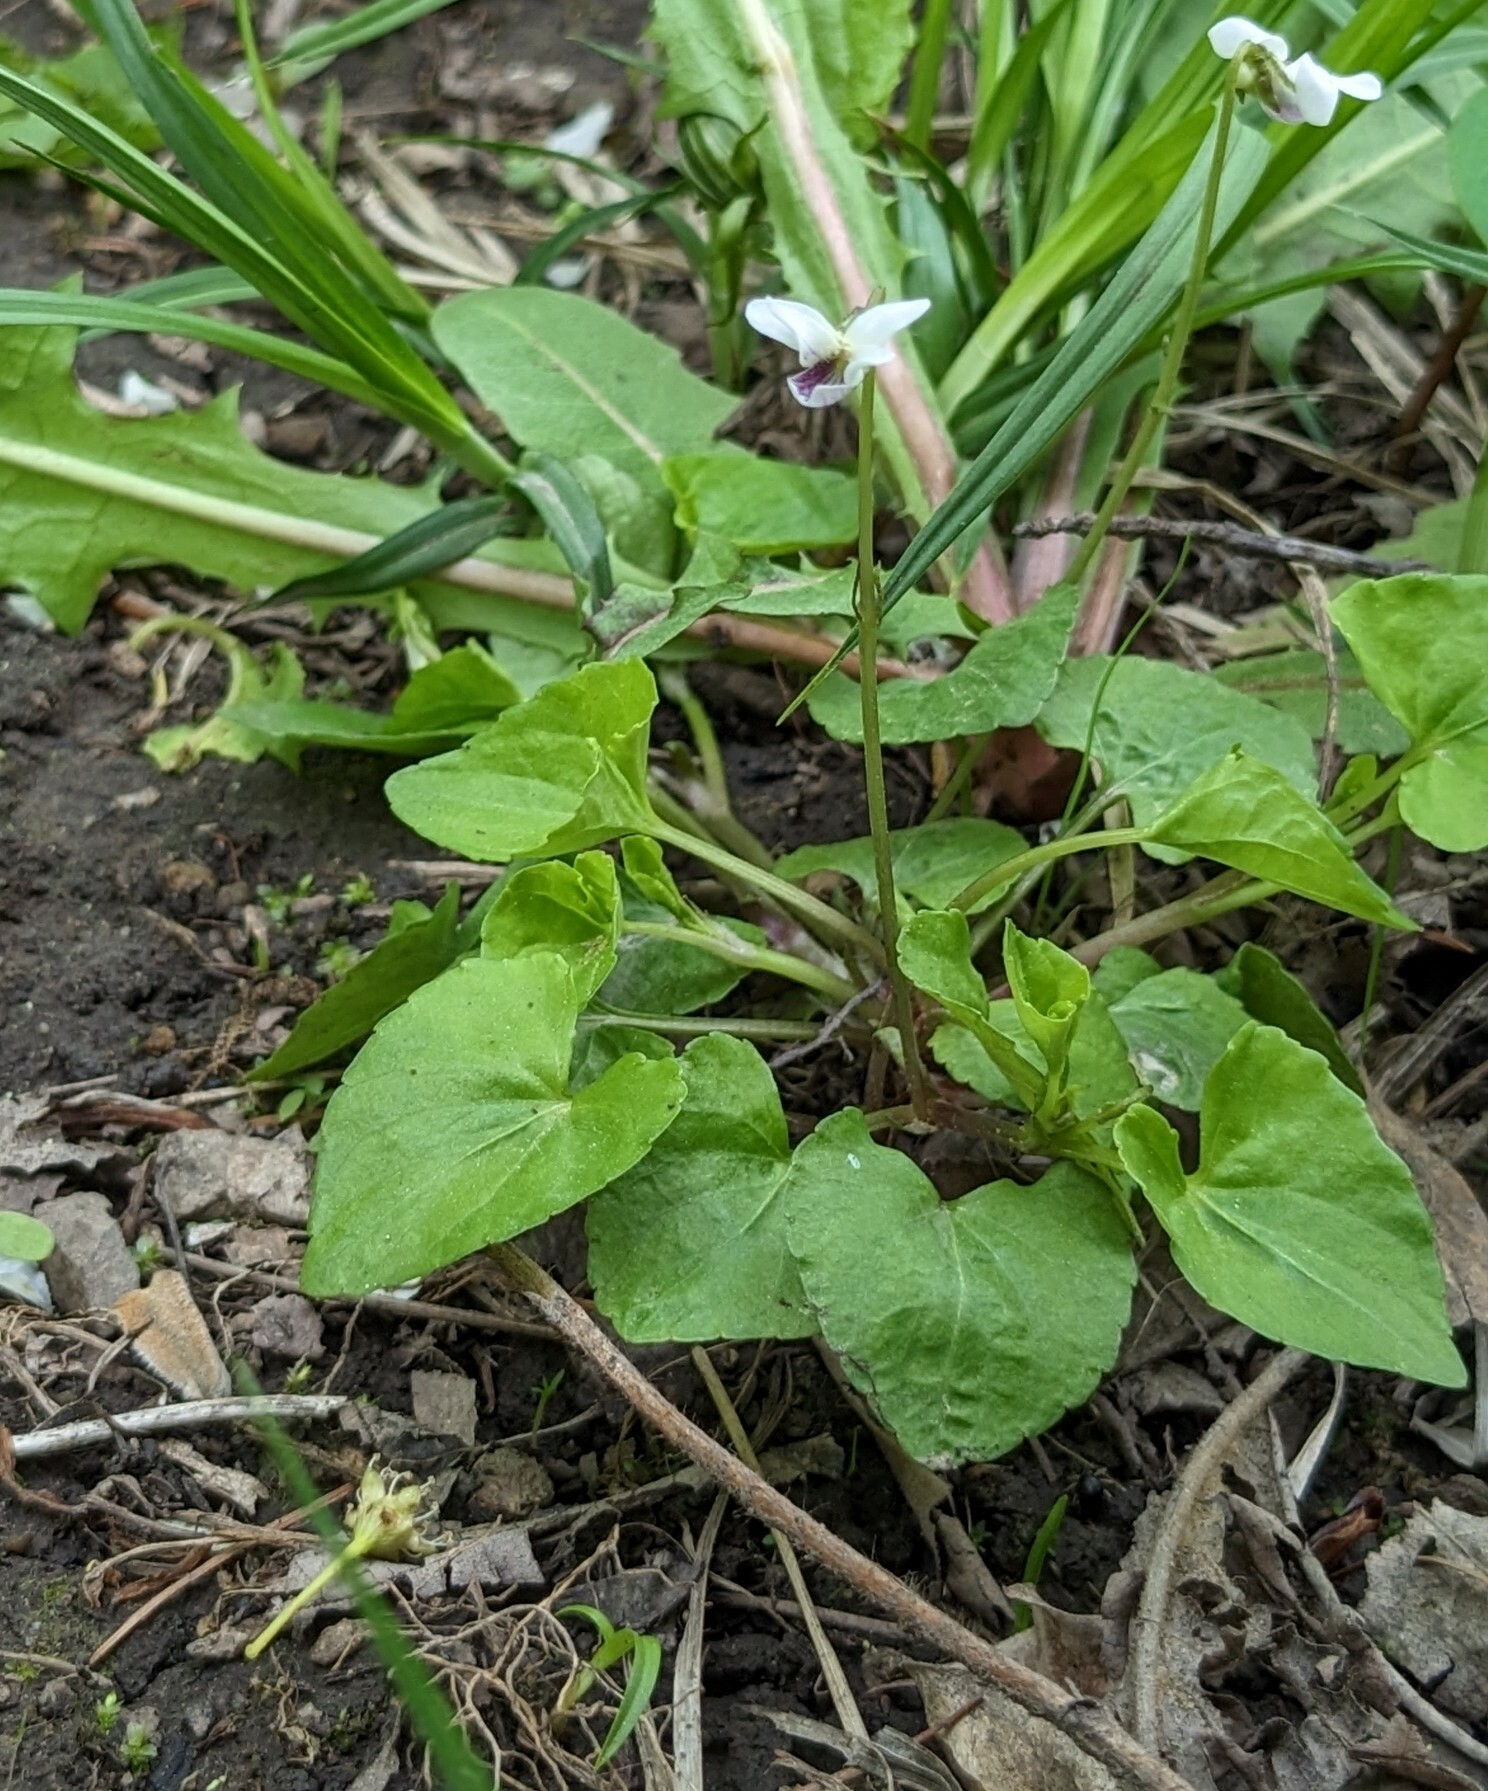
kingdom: Plantae
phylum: Tracheophyta
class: Magnoliopsida
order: Malpighiales
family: Violaceae
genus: Viola
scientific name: Viola
